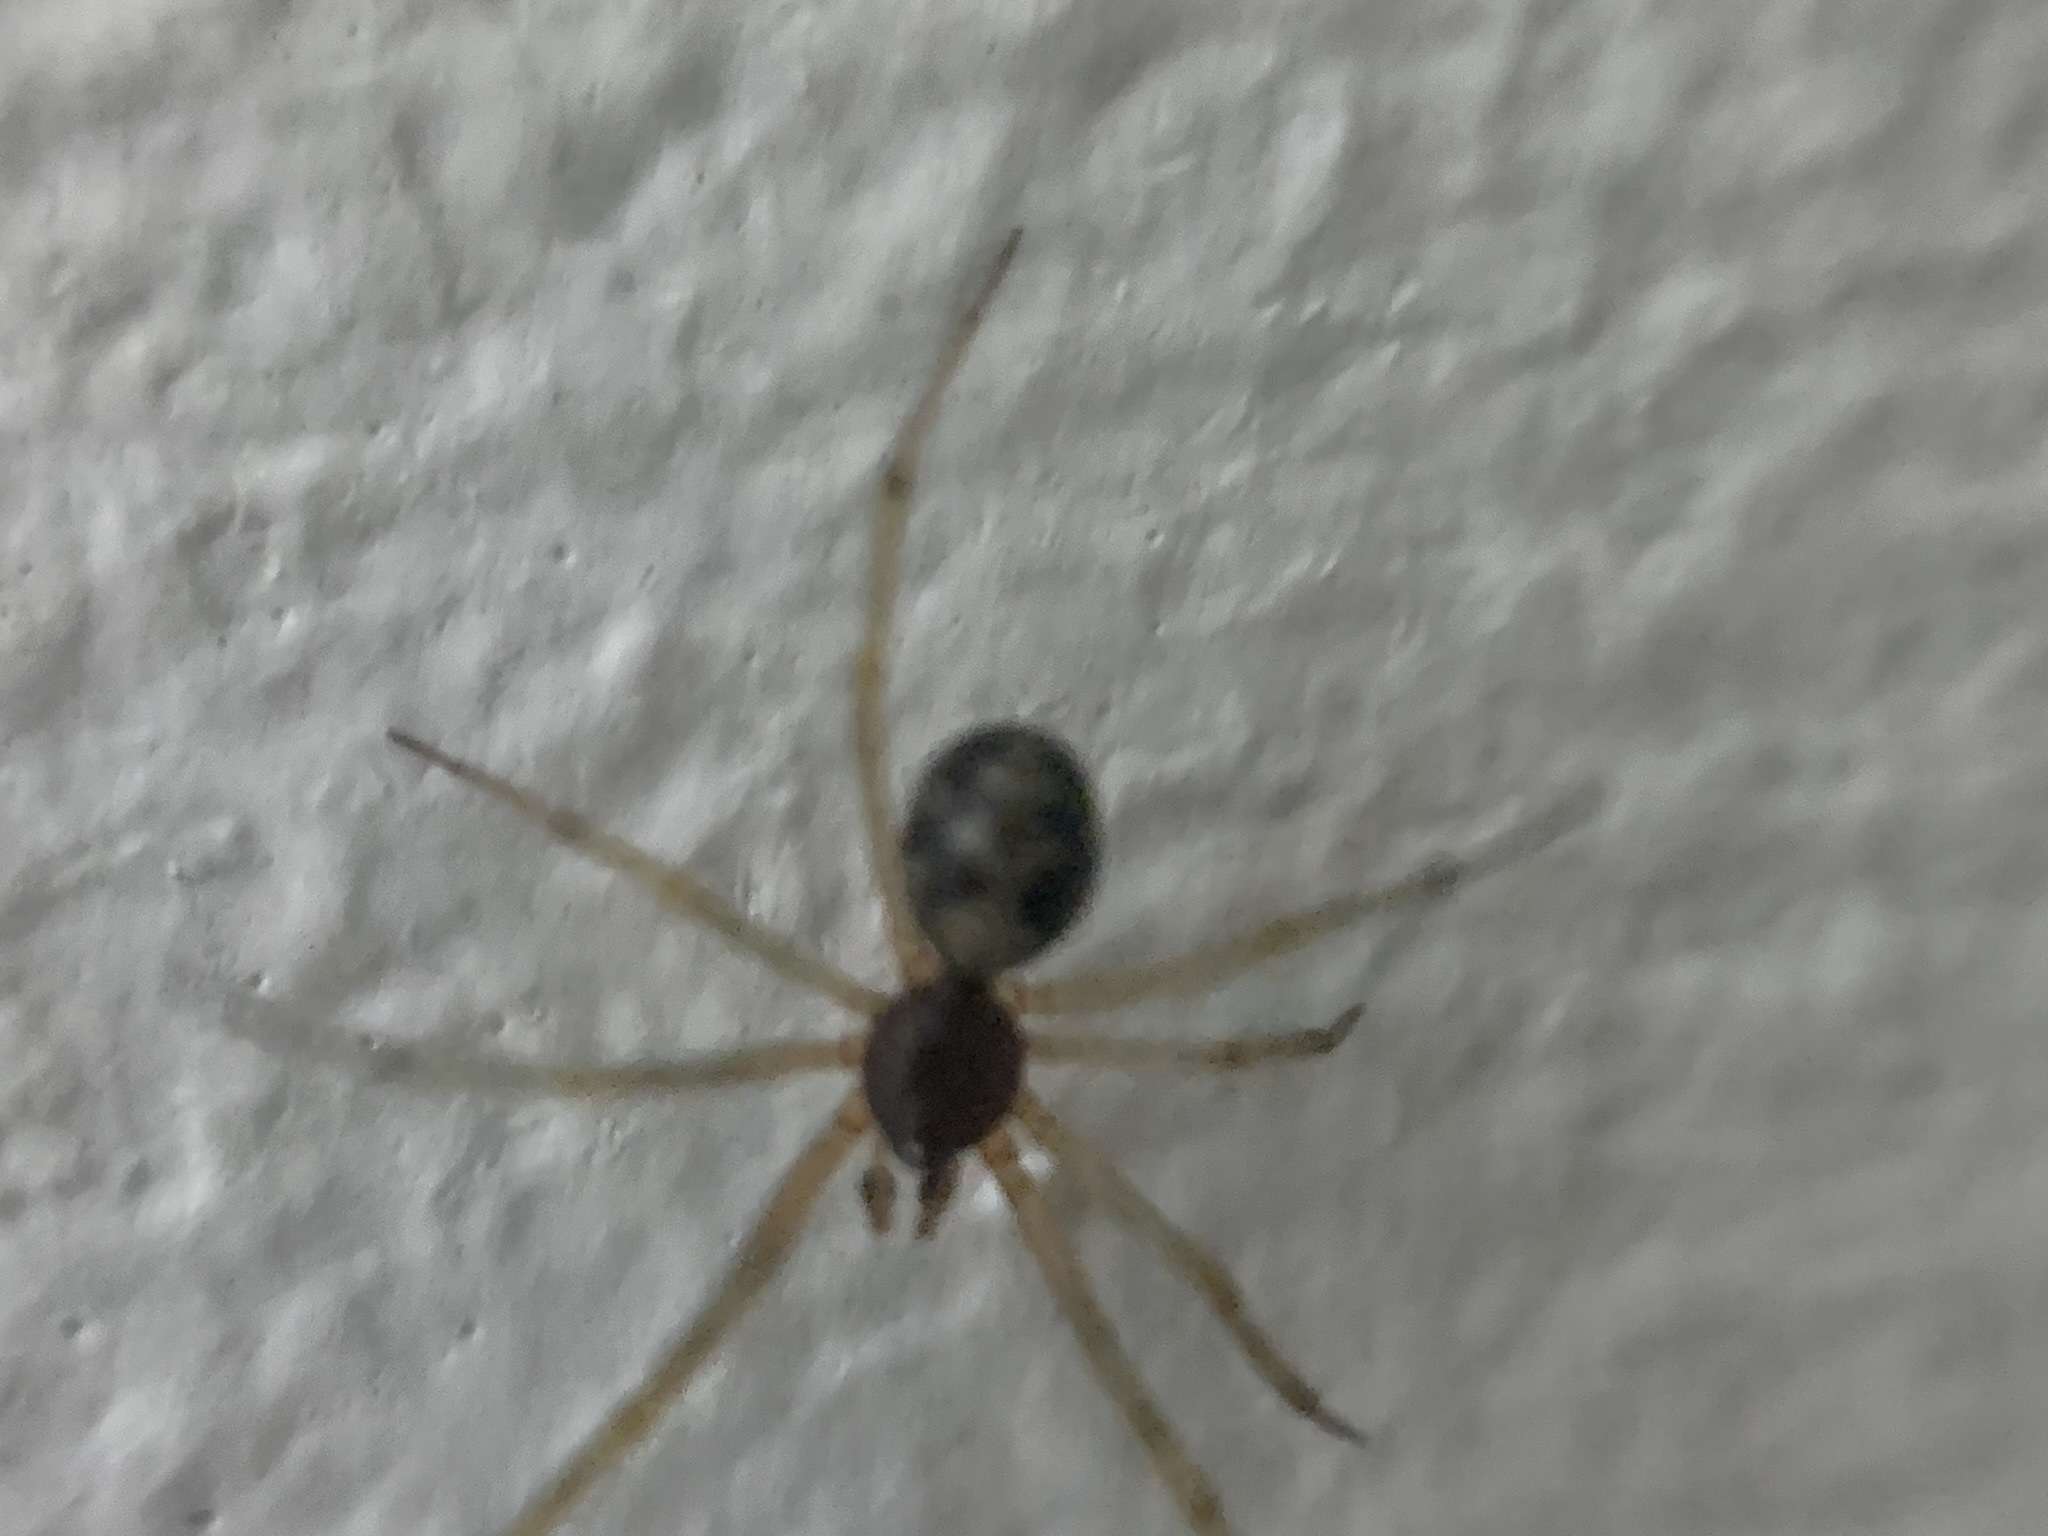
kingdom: Animalia
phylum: Arthropoda
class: Arachnida
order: Araneae
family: Theridiidae
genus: Steatoda
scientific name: Steatoda triangulosa
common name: Triangulate bud spider
